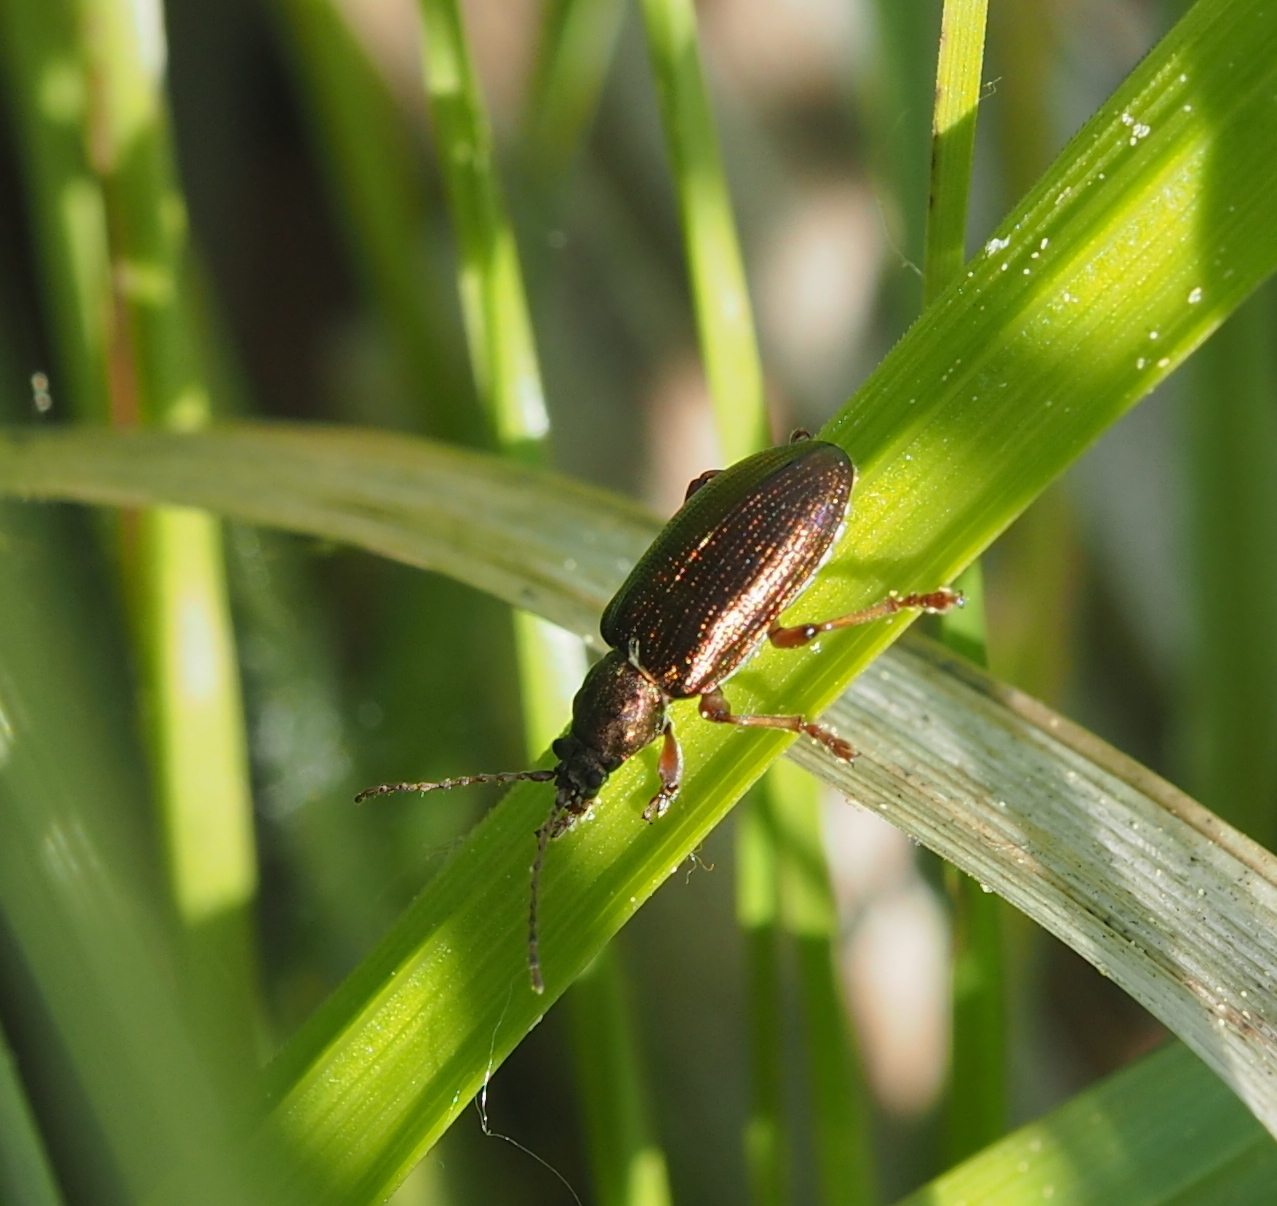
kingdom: Animalia
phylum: Arthropoda
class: Insecta
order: Coleoptera
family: Chrysomelidae
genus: Plateumaris
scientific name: Plateumaris consimilis
